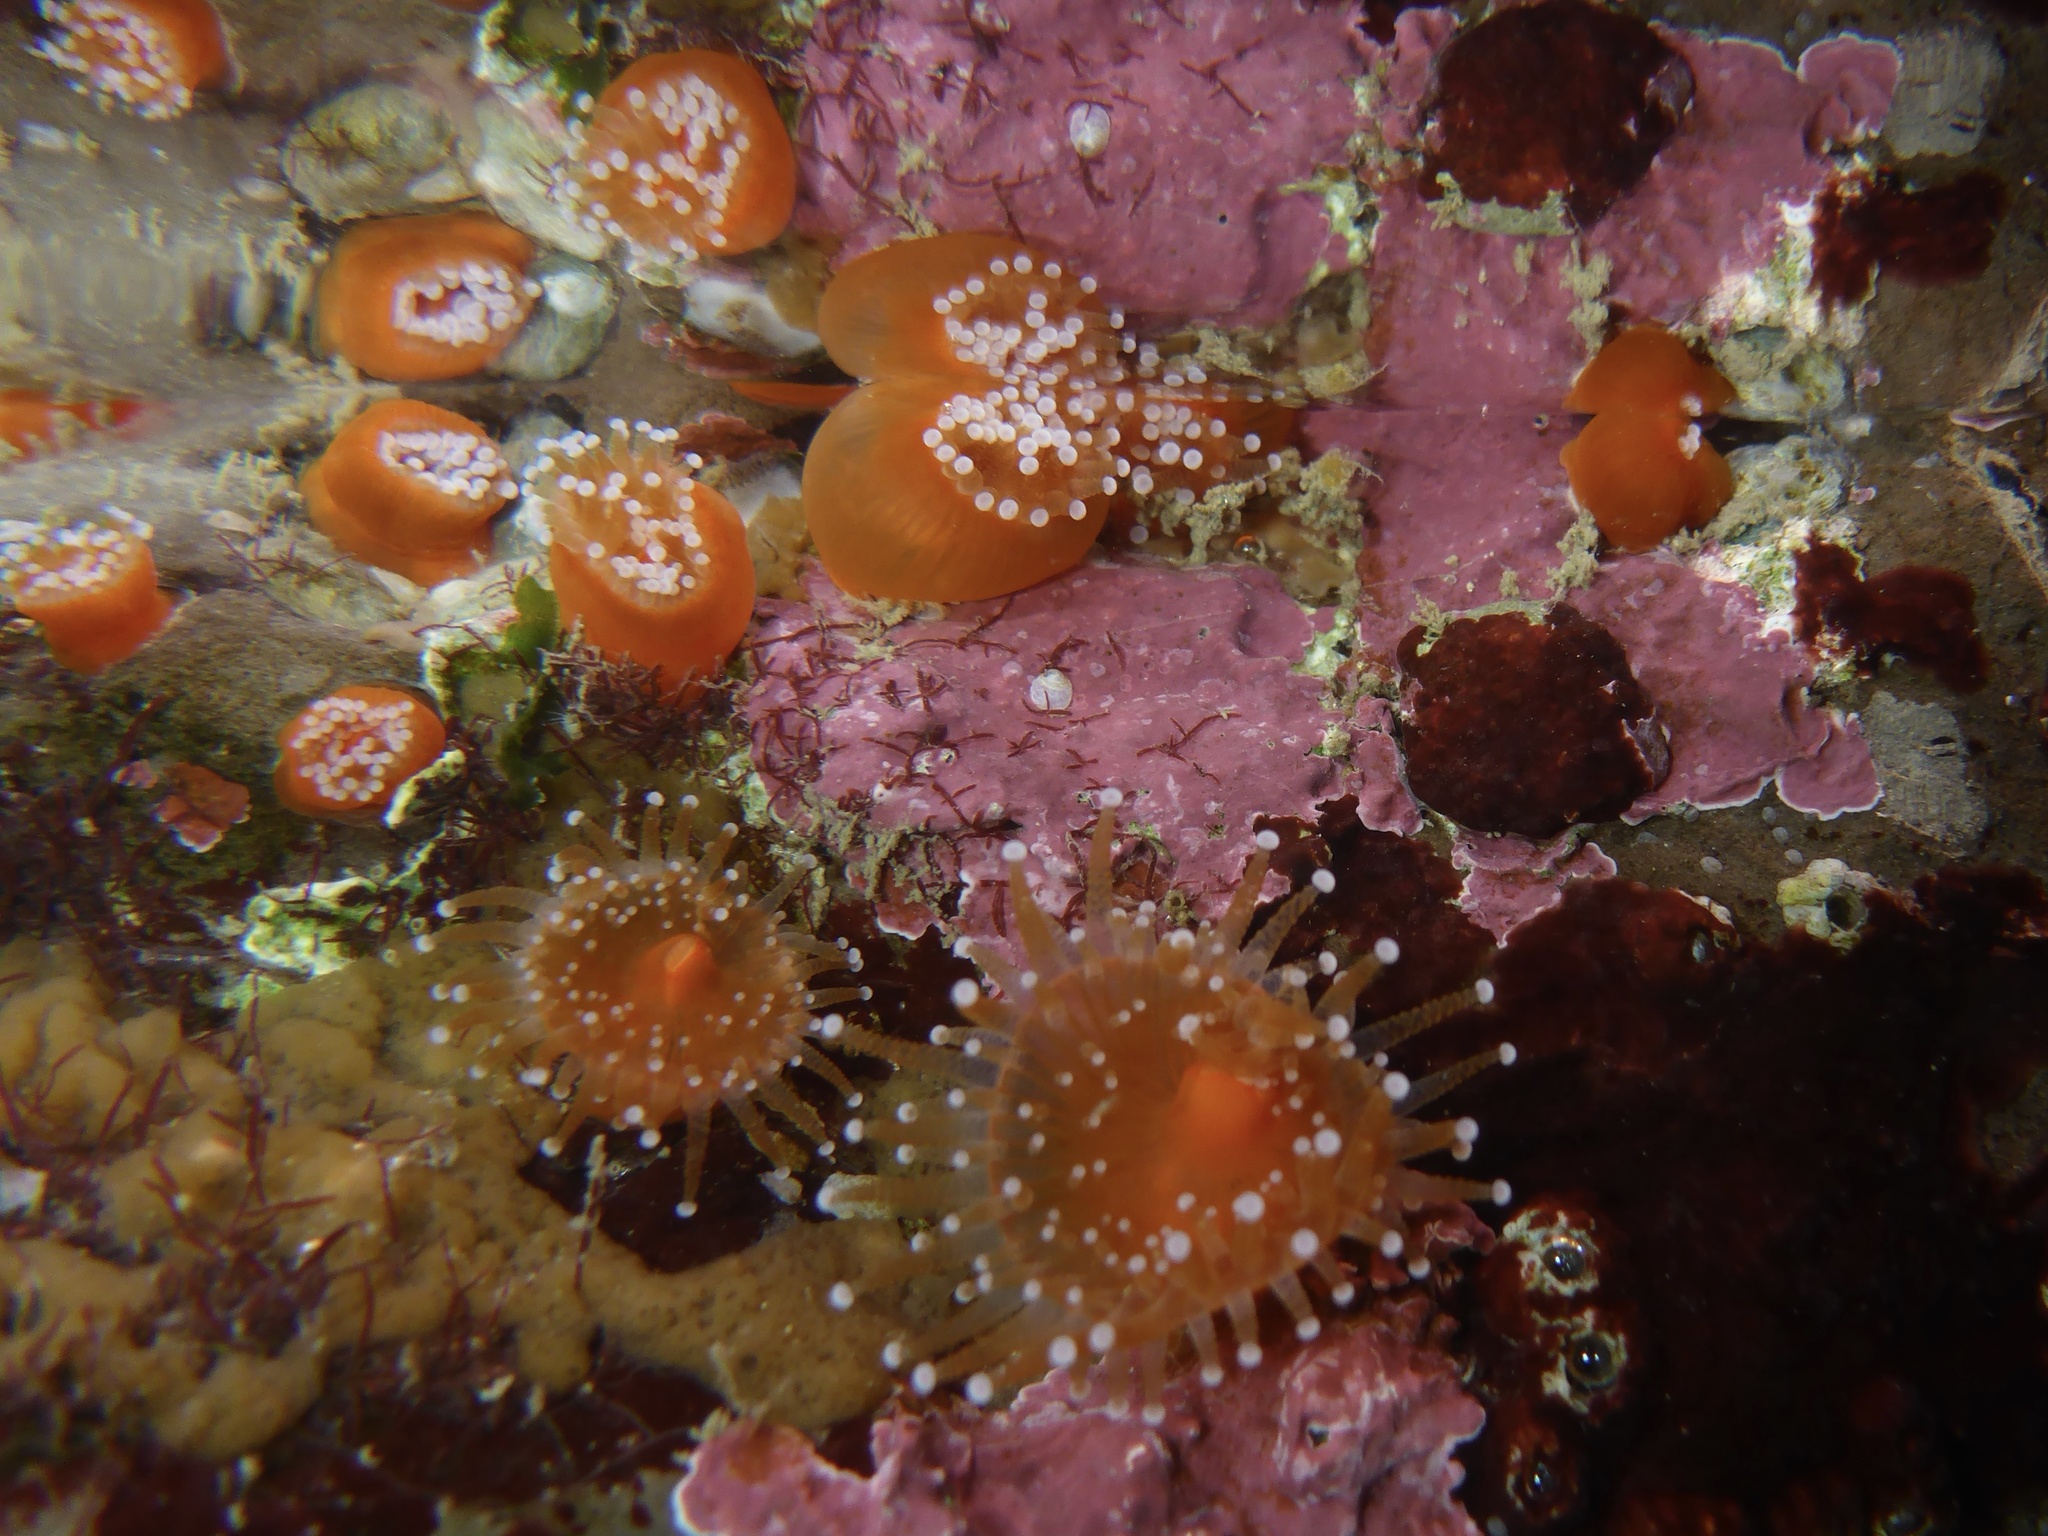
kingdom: Animalia
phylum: Cnidaria
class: Anthozoa
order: Corallimorpharia
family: Corallimorphidae
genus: Corynactis
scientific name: Corynactis californica
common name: Strawberry corallimorpharian
